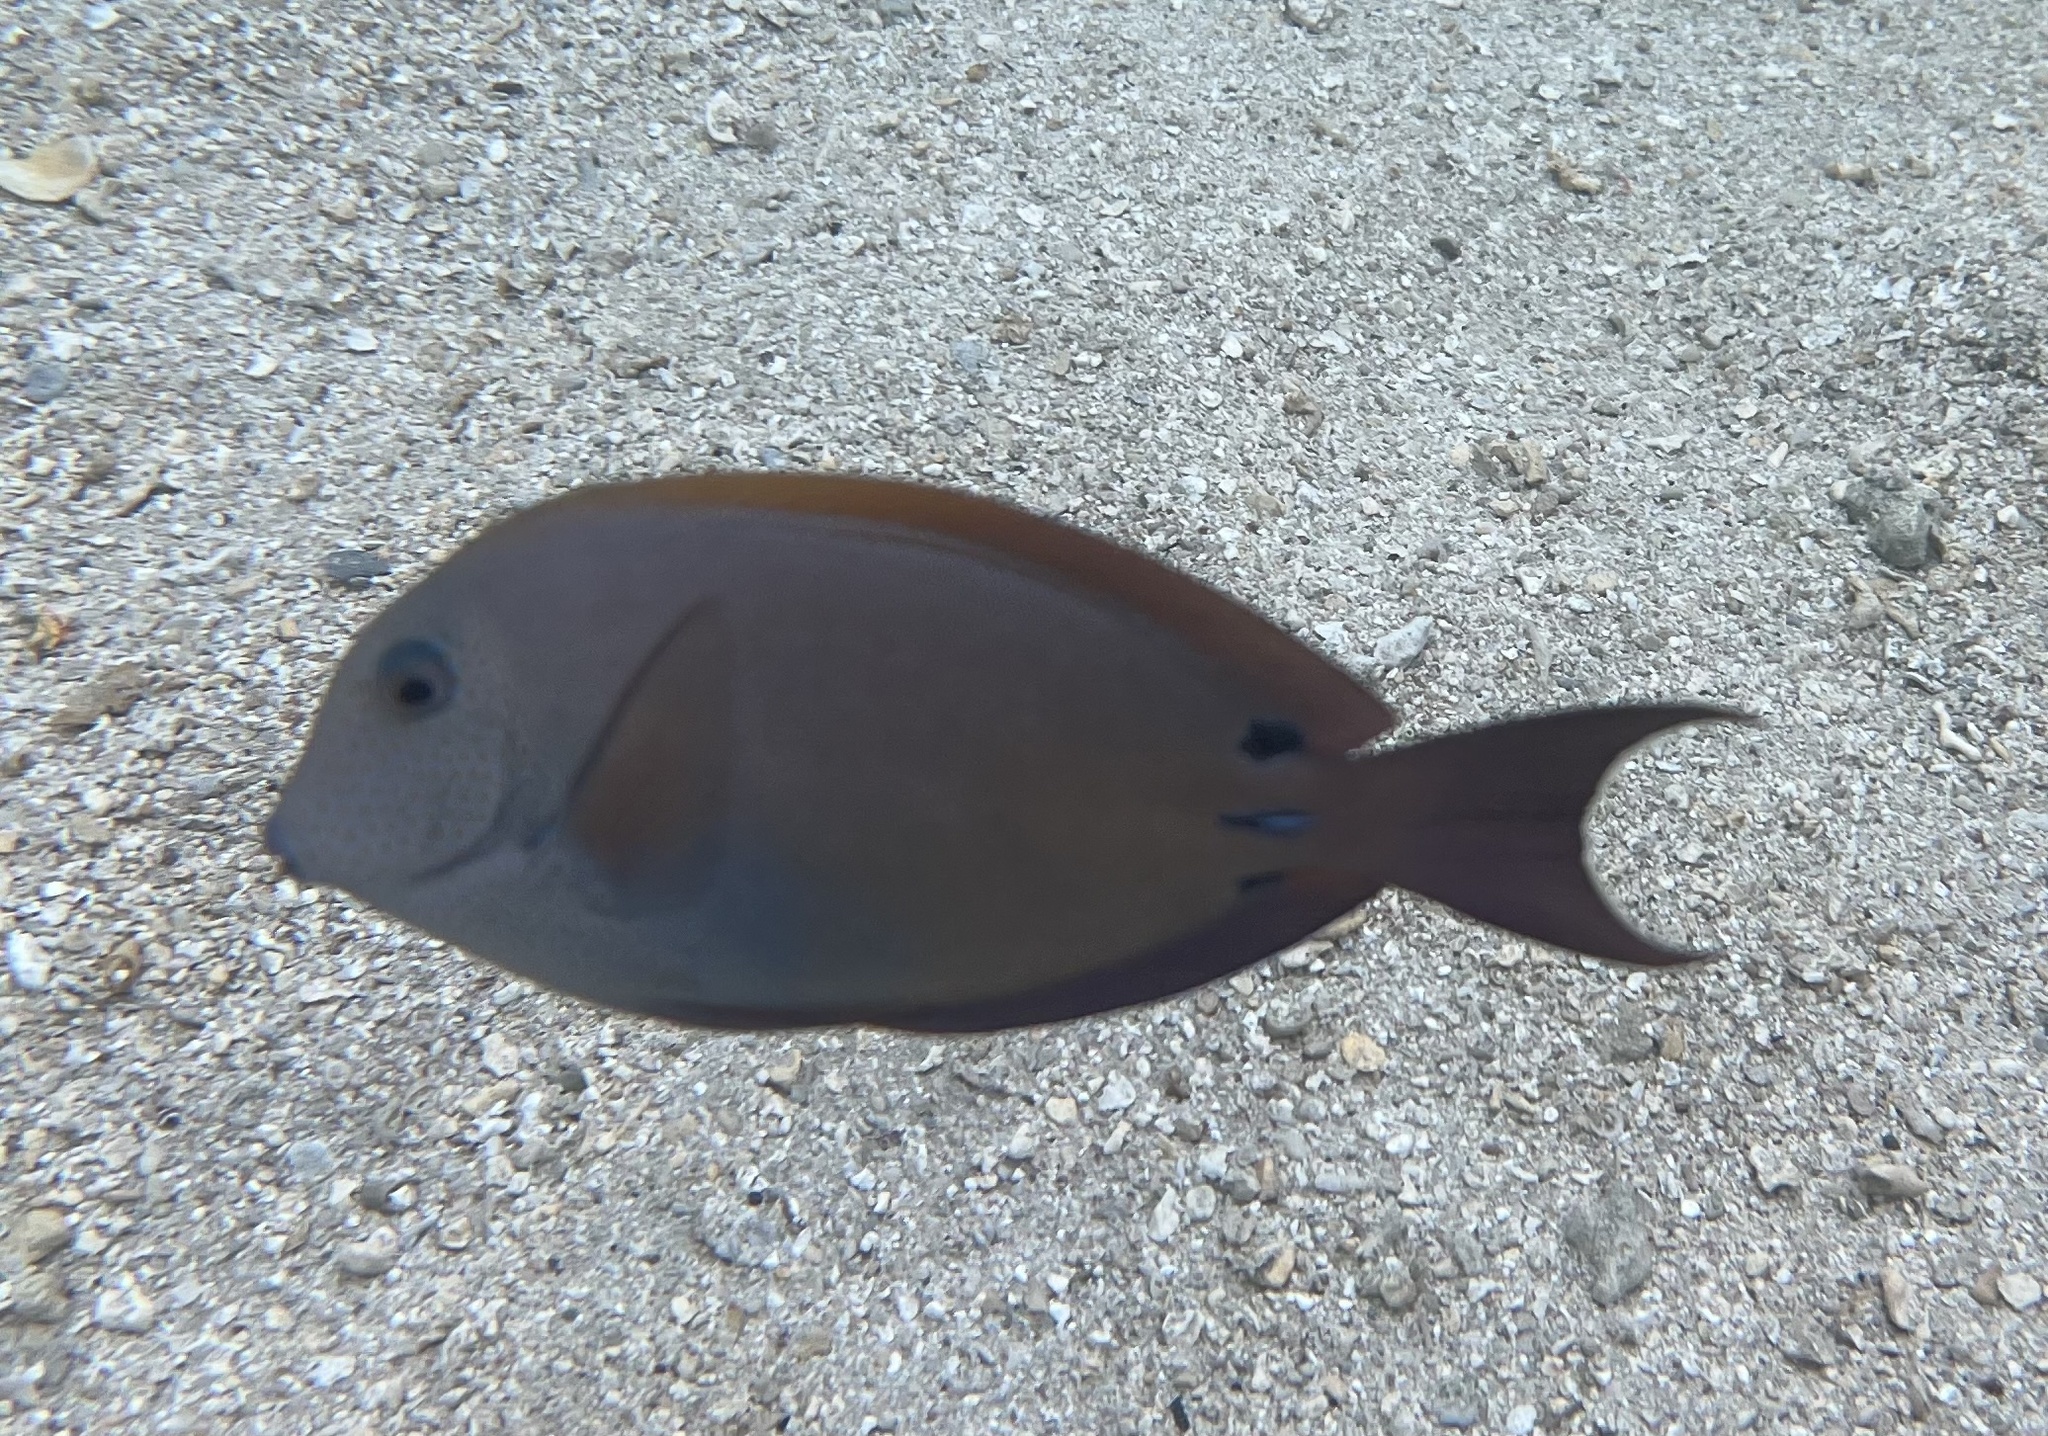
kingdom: Animalia
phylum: Chordata
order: Perciformes
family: Acanthuridae
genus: Acanthurus
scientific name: Acanthurus nigrofuscus
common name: Blackspot surgeonfish
